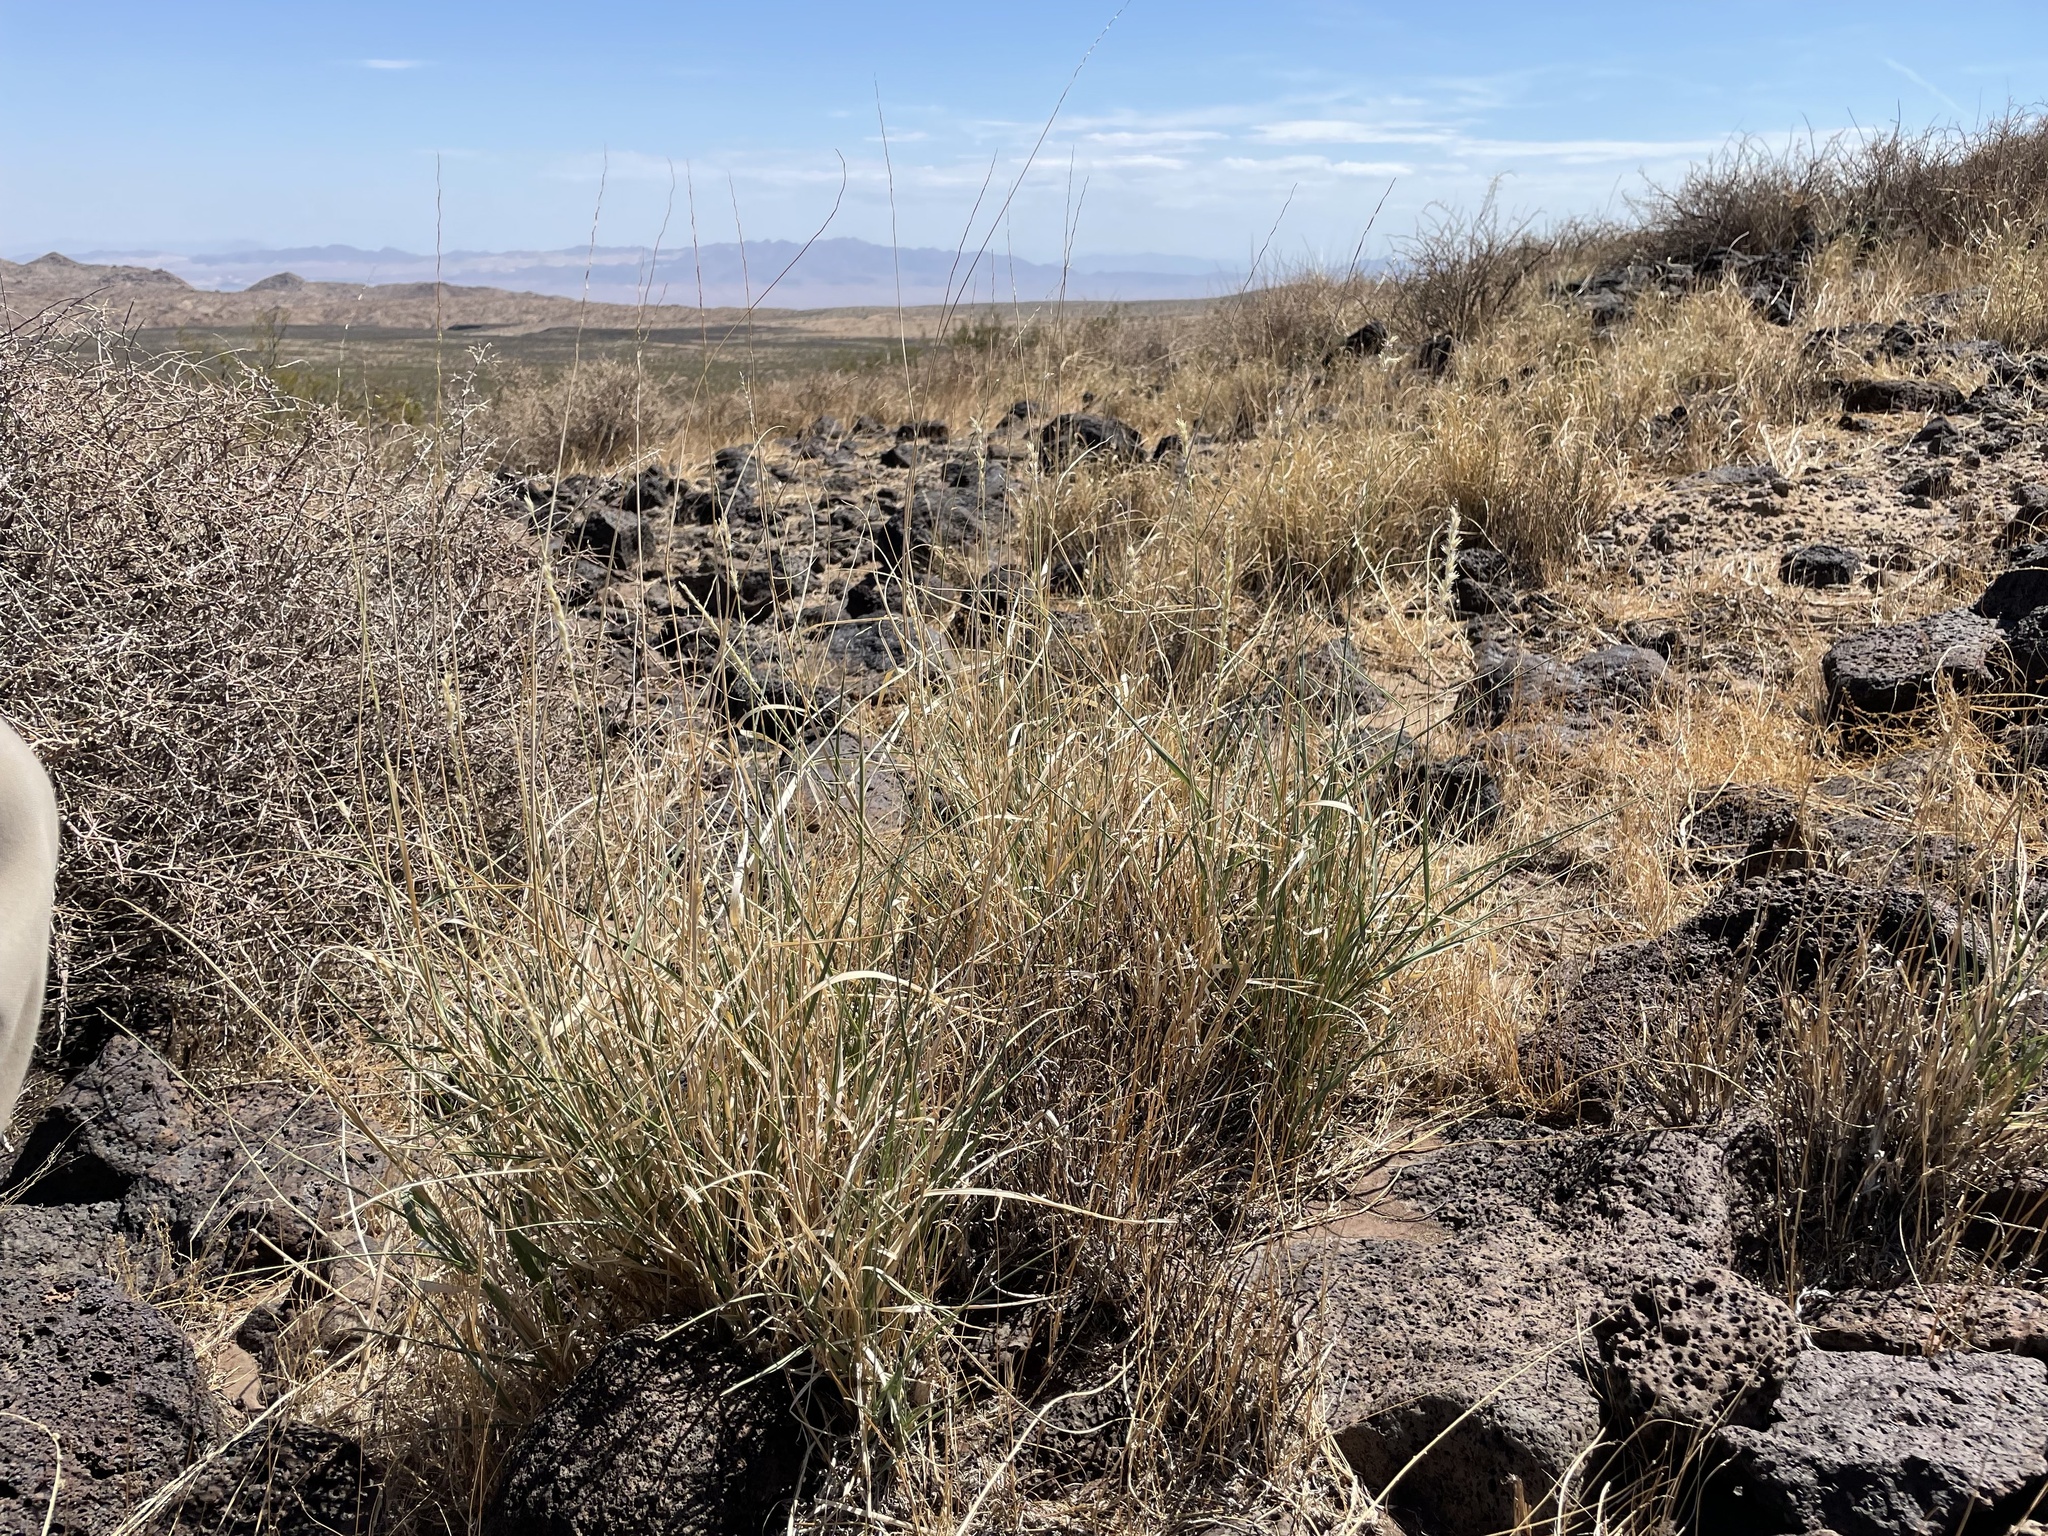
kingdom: Plantae
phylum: Tracheophyta
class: Liliopsida
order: Poales
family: Poaceae
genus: Hilaria
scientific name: Hilaria rigida
